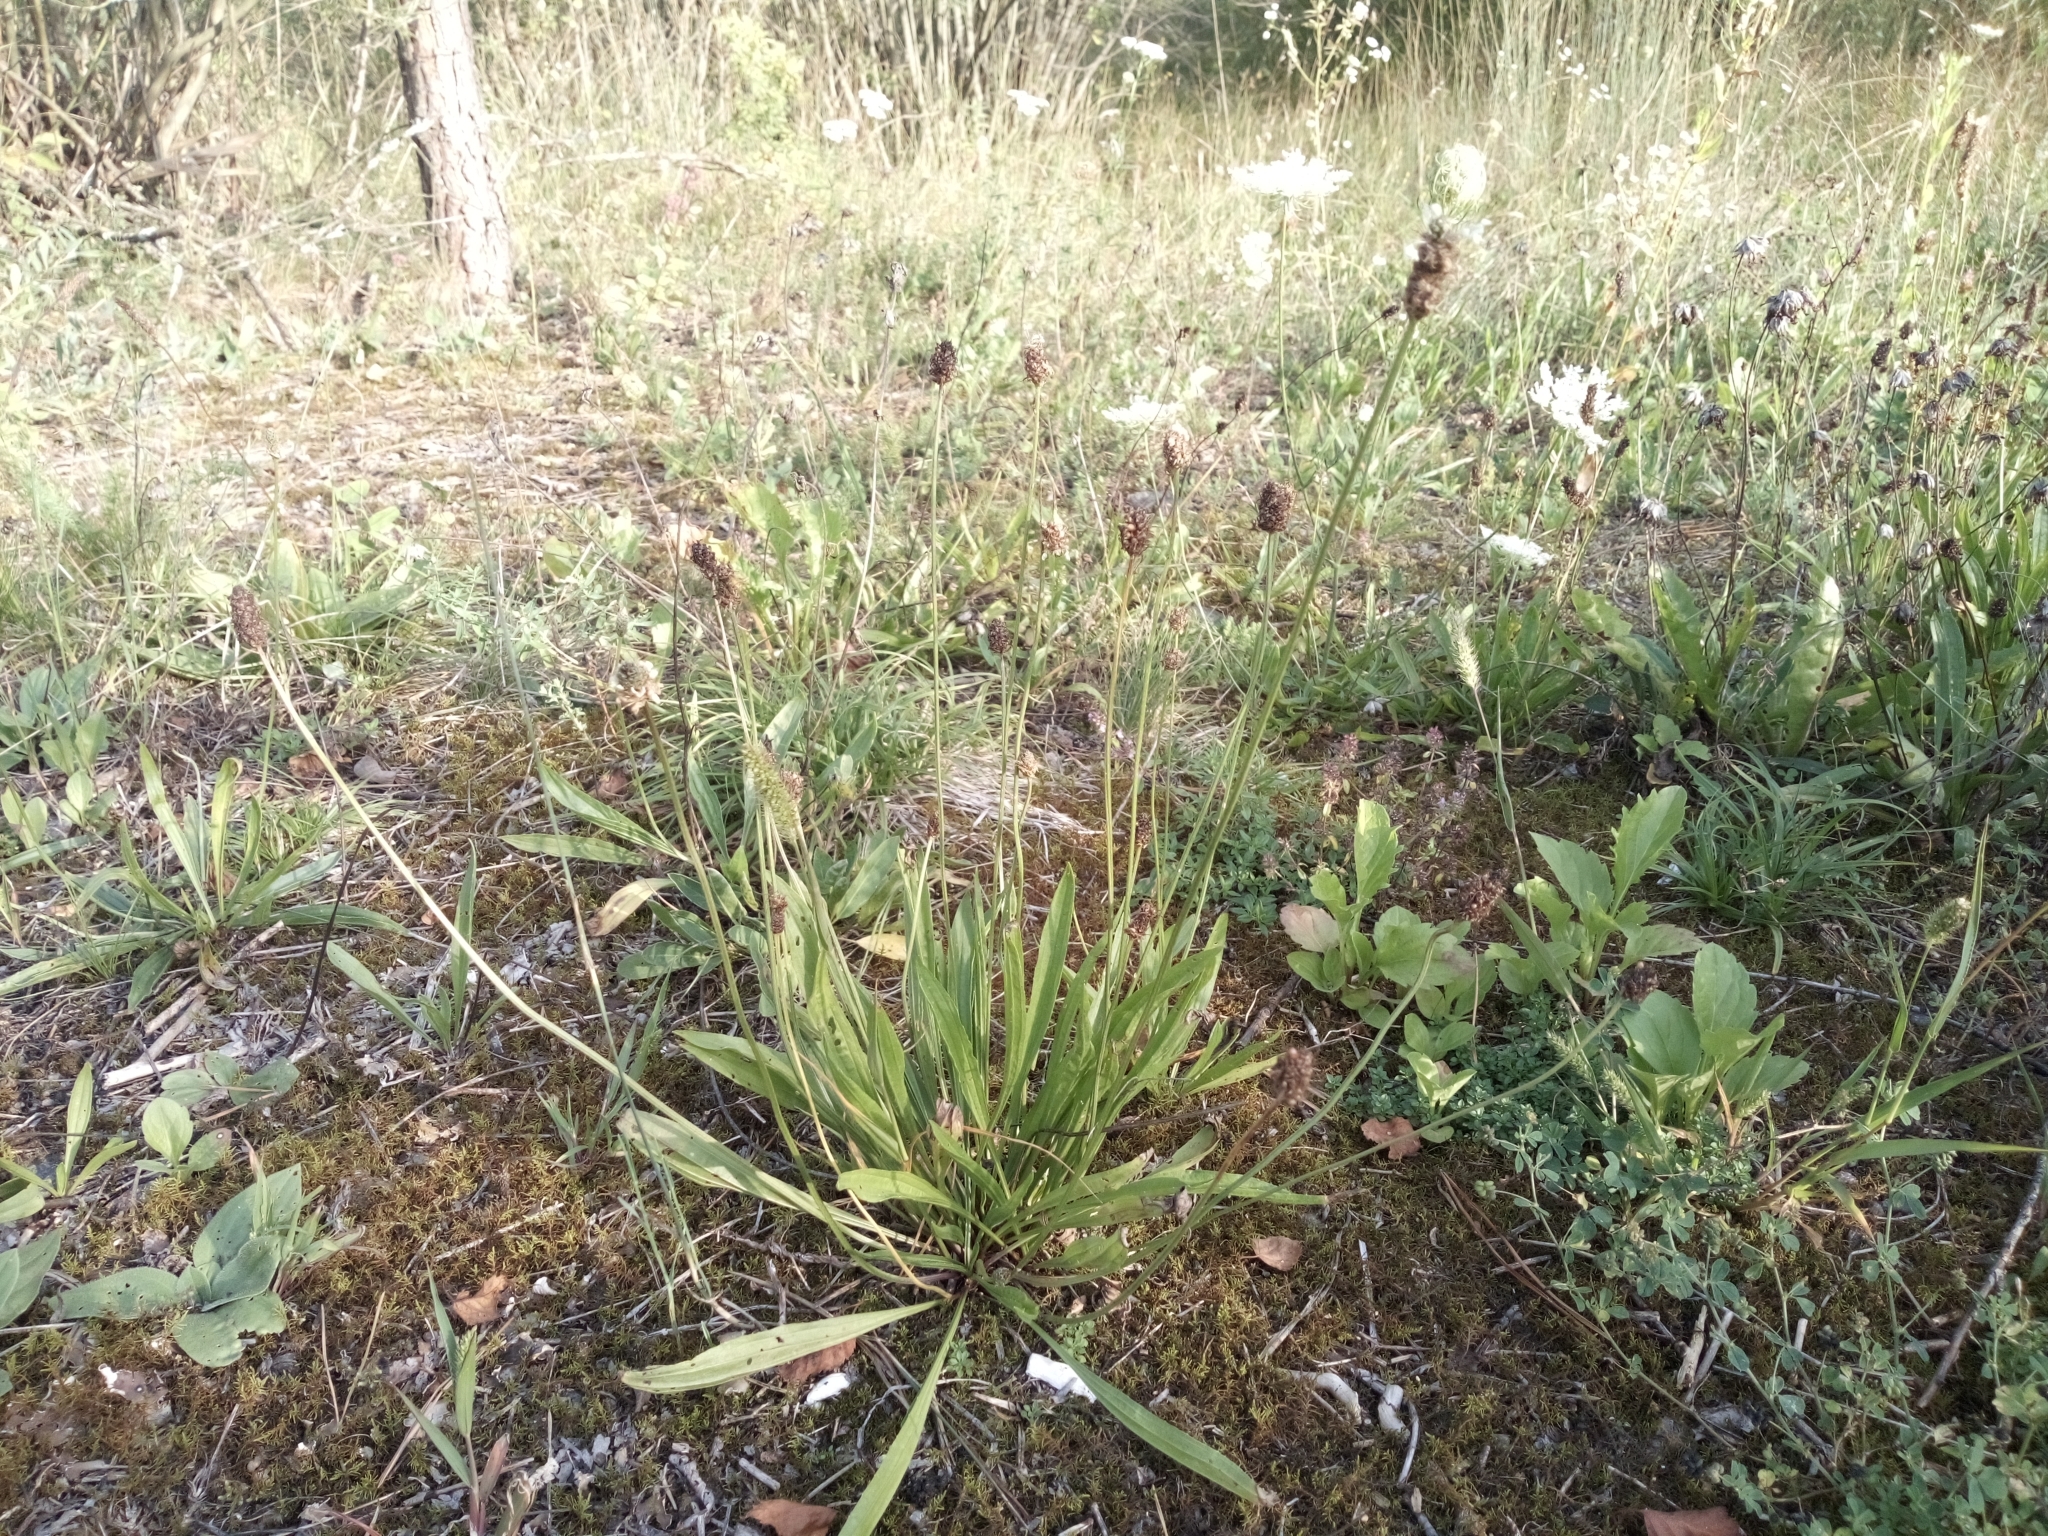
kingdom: Plantae
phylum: Tracheophyta
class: Magnoliopsida
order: Lamiales
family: Plantaginaceae
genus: Plantago
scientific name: Plantago lanceolata
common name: Ribwort plantain
